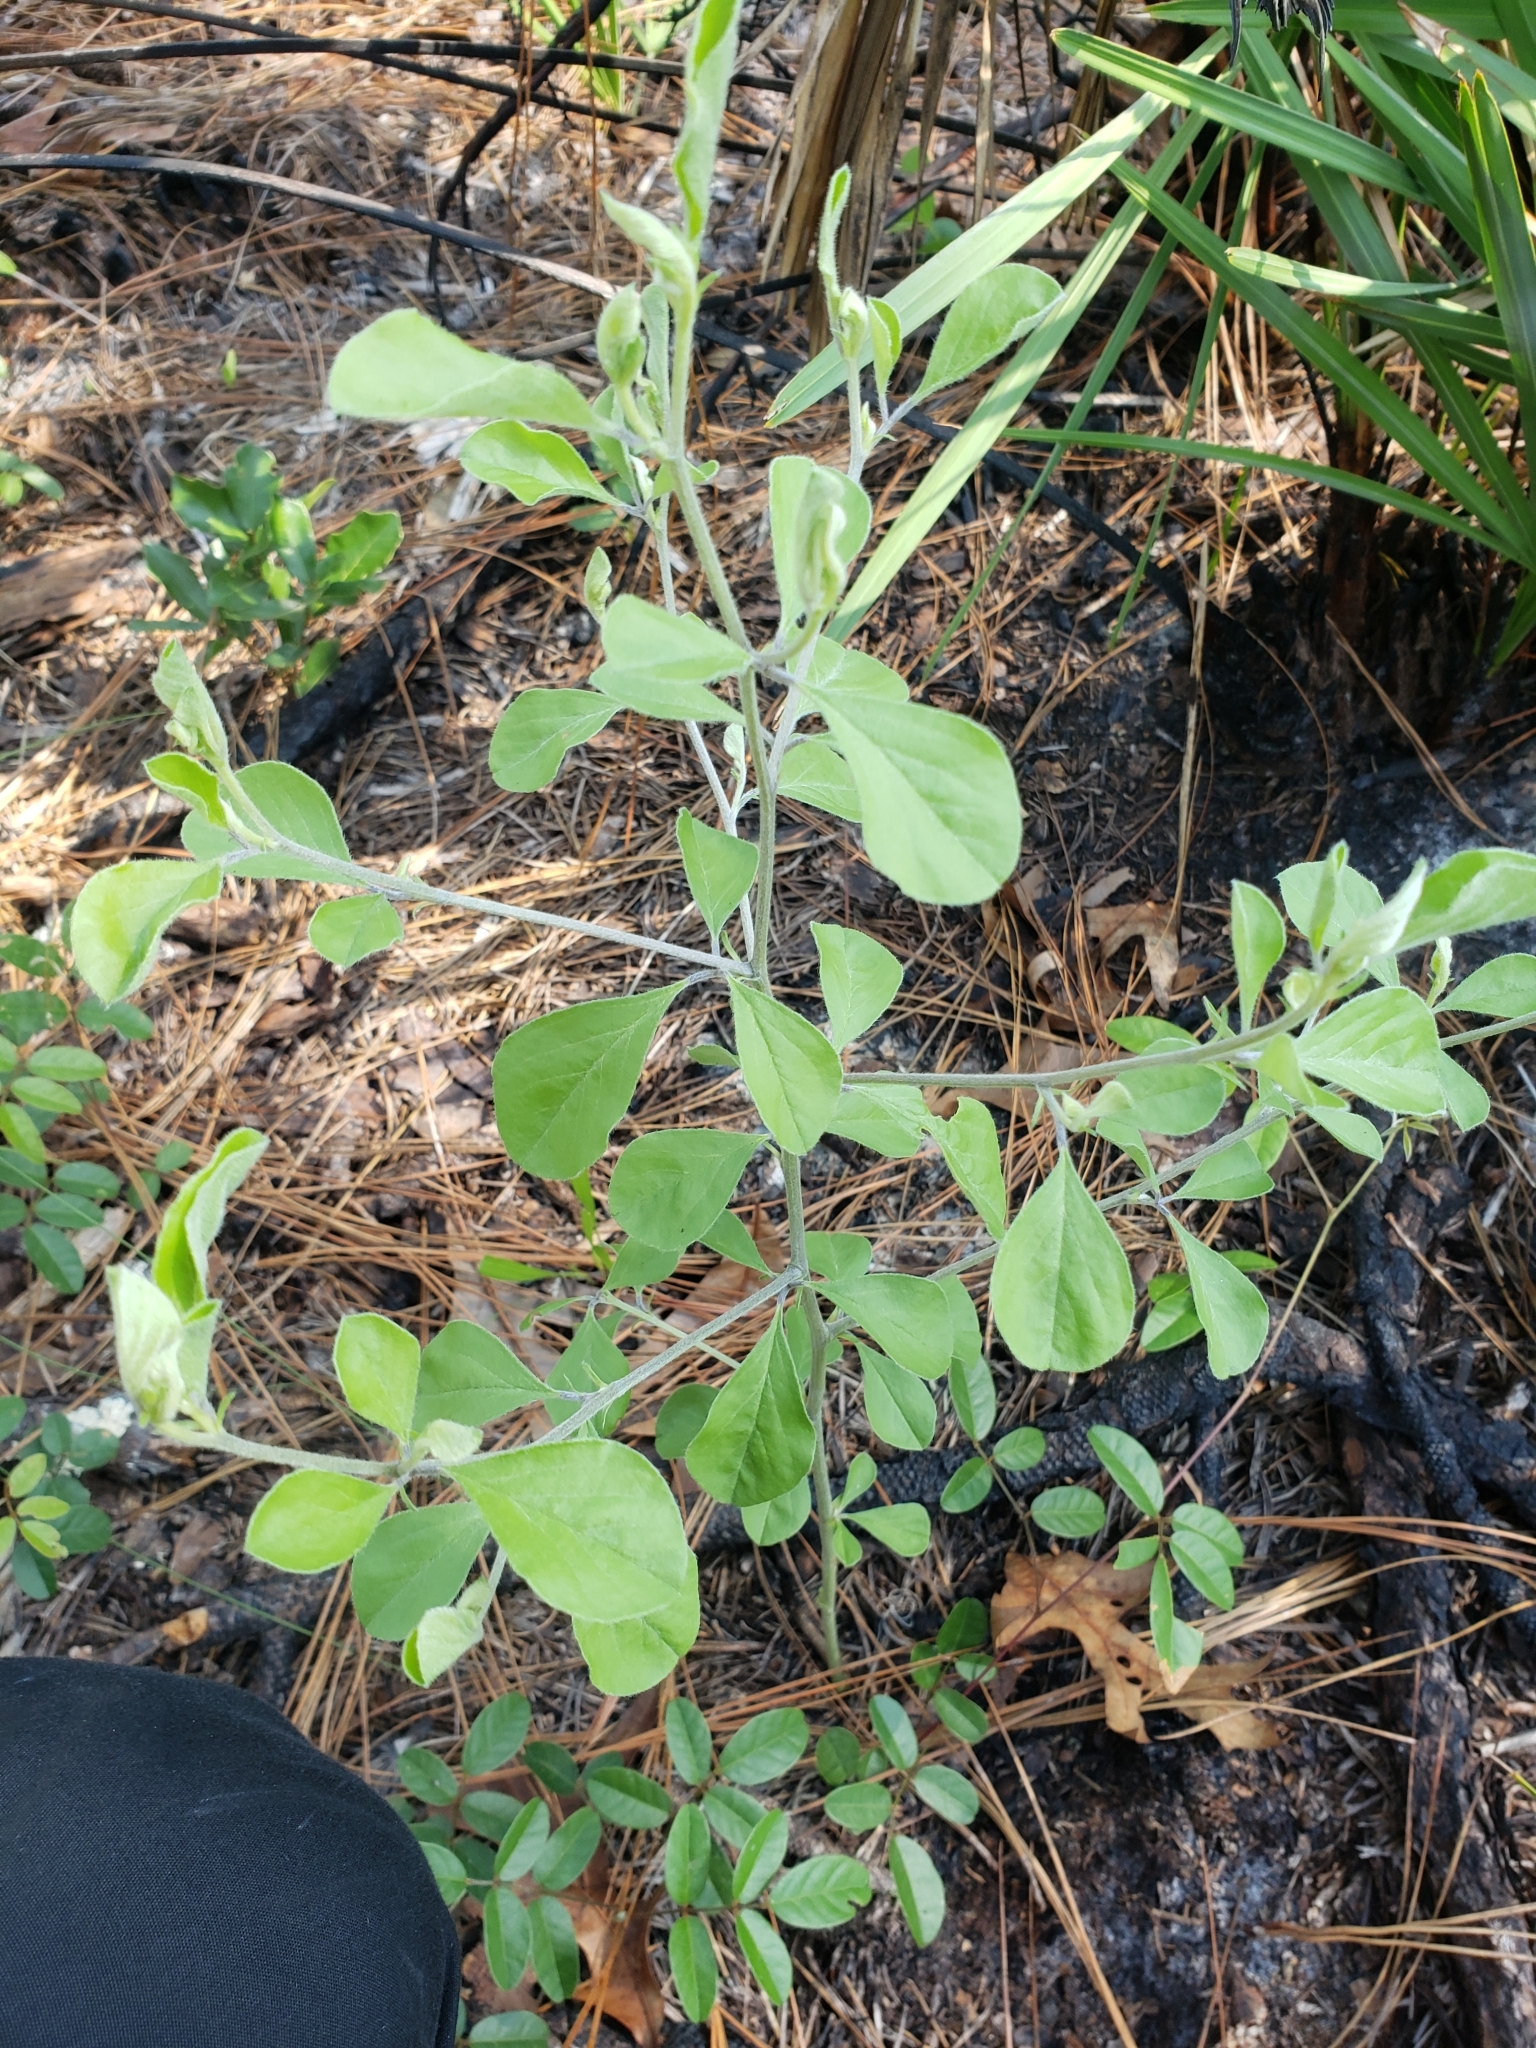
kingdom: Plantae
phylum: Tracheophyta
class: Magnoliopsida
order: Fabales
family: Fabaceae
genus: Pediomelum
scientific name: Pediomelum canescens
